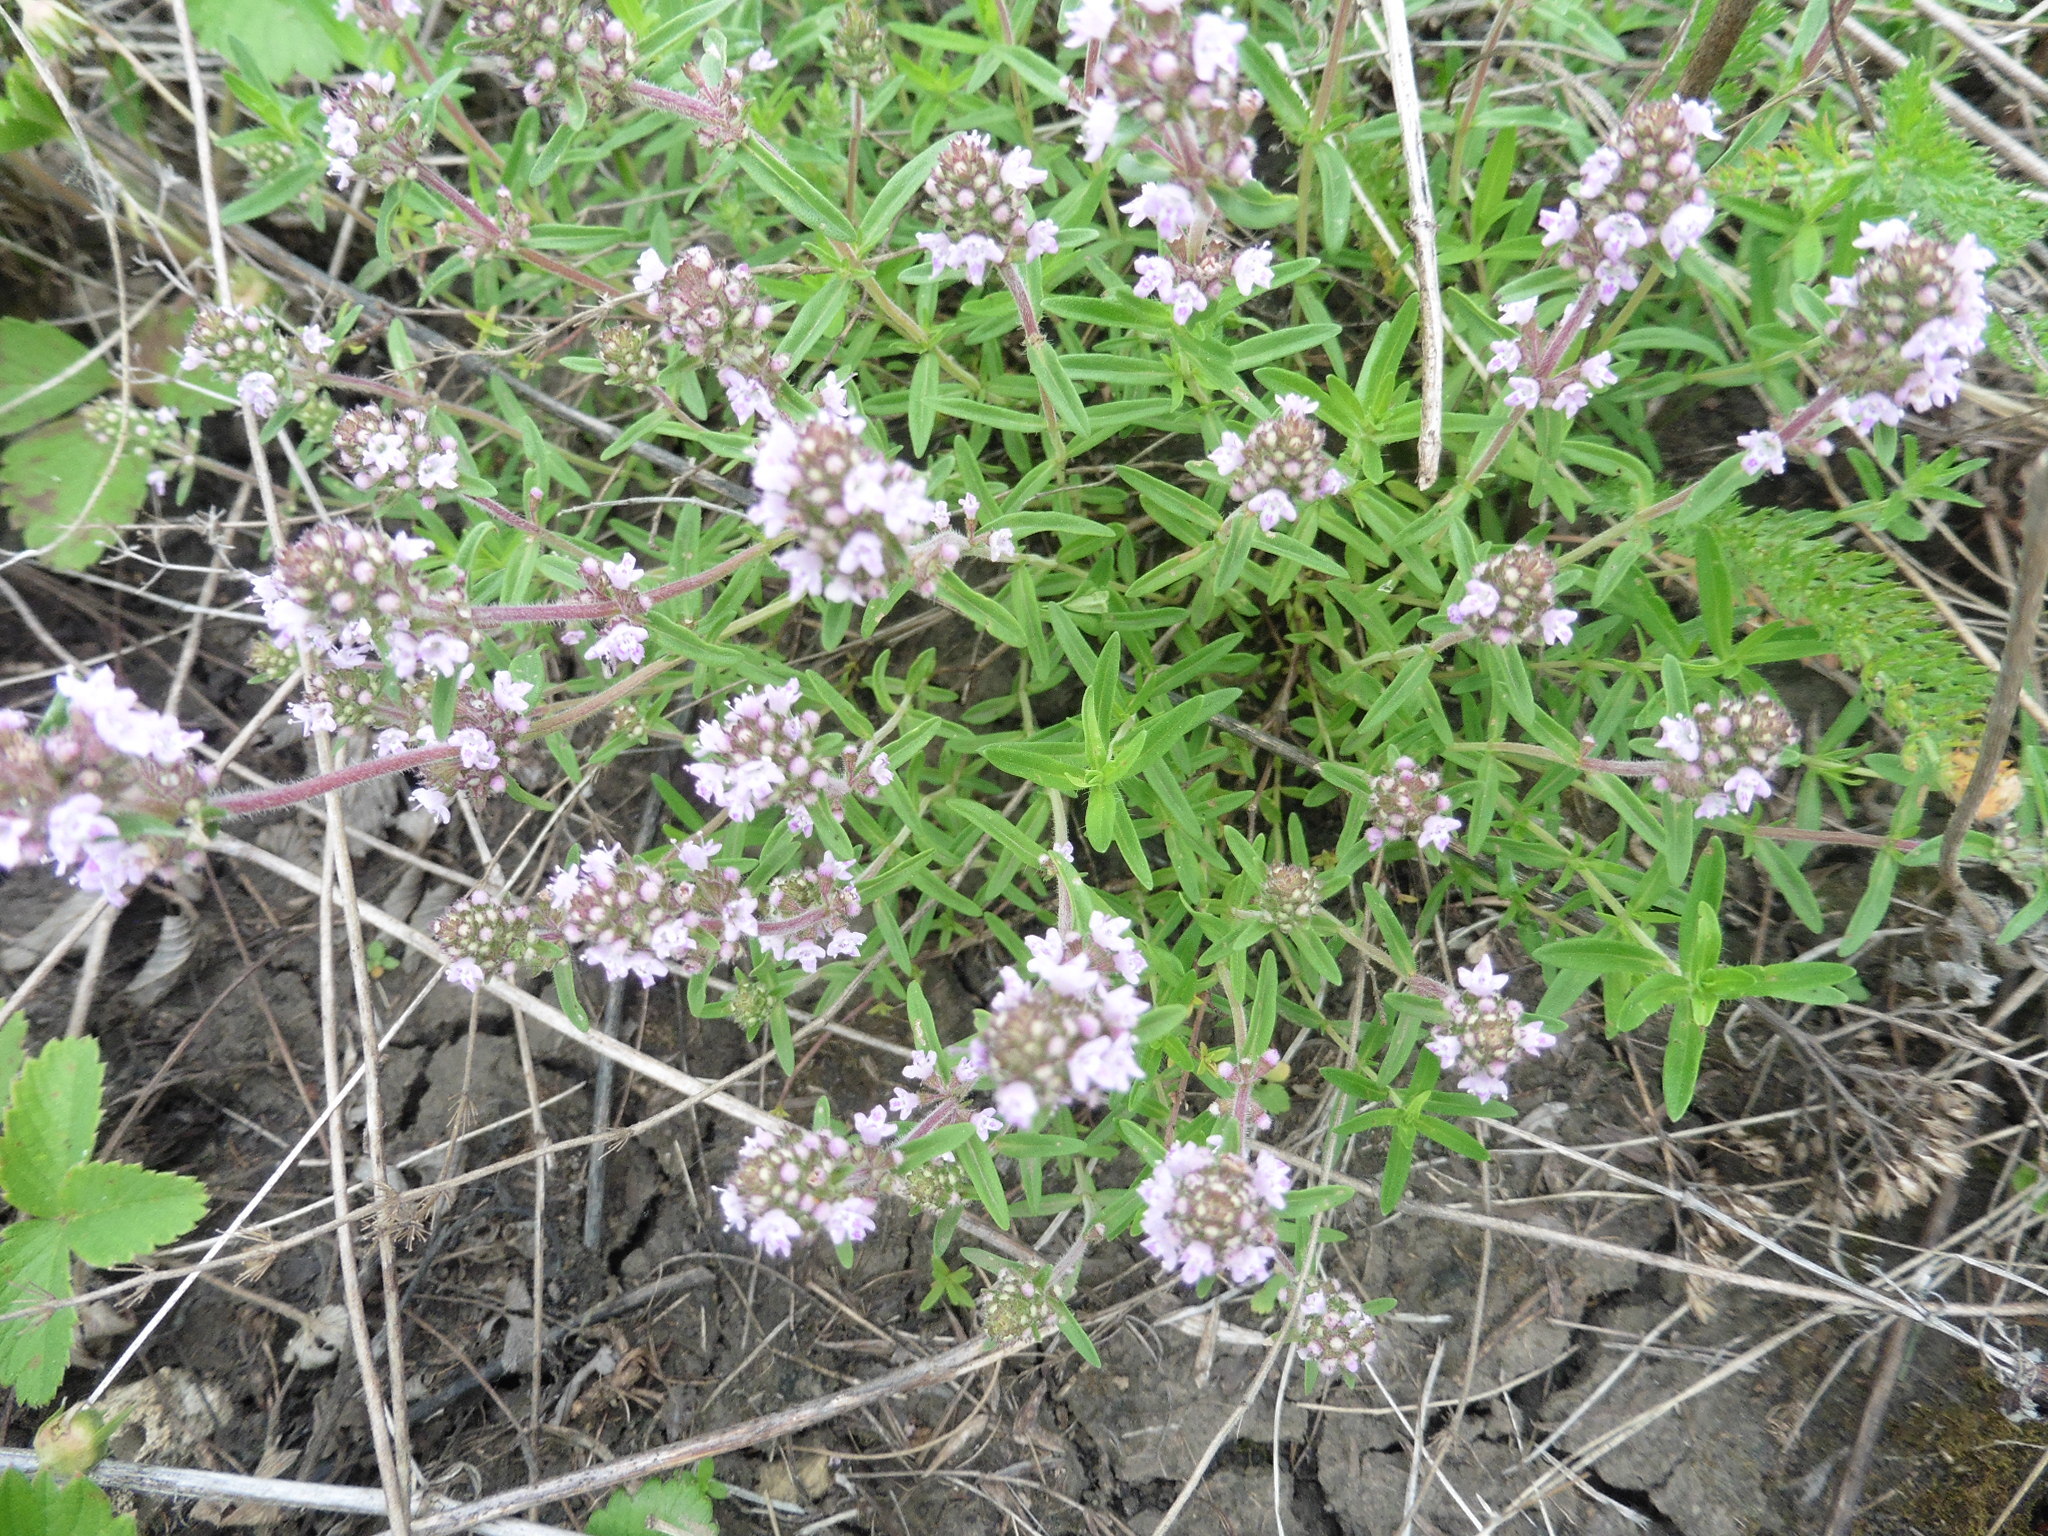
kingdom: Plantae
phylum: Tracheophyta
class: Magnoliopsida
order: Lamiales
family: Lamiaceae
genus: Thymus
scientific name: Thymus pannonicus
